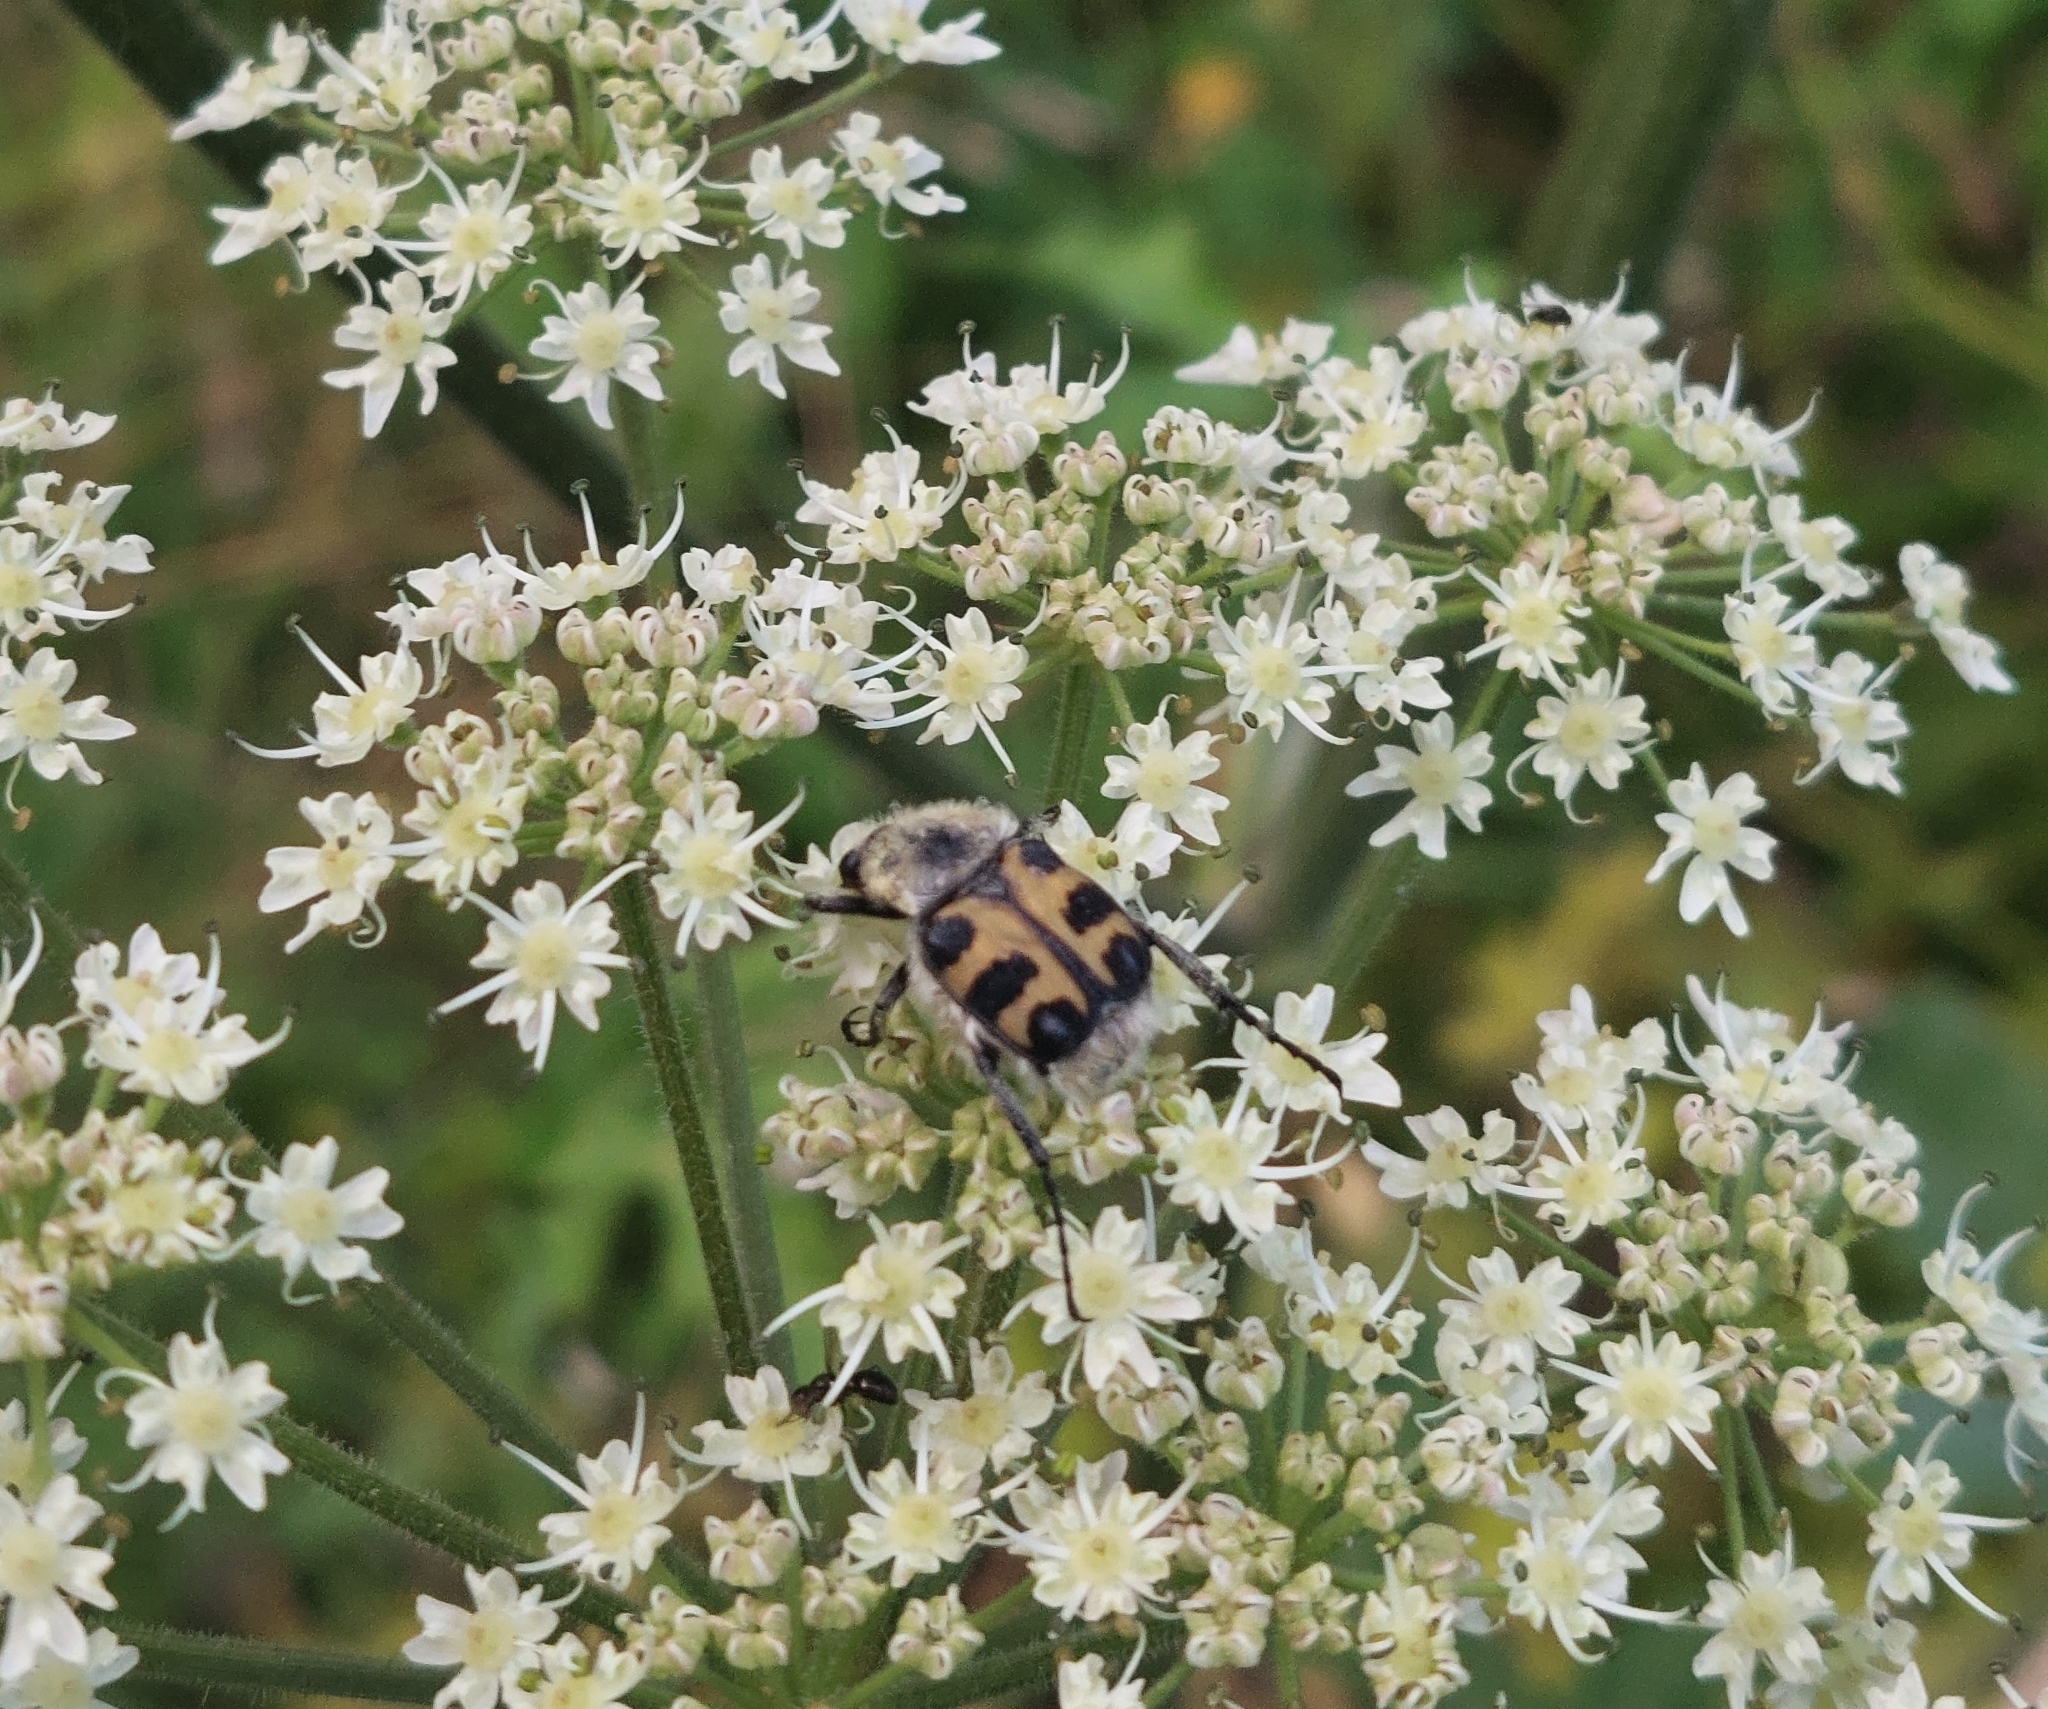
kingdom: Animalia
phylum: Arthropoda
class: Insecta
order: Coleoptera
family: Scarabaeidae
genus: Trichius
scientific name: Trichius gallicus
